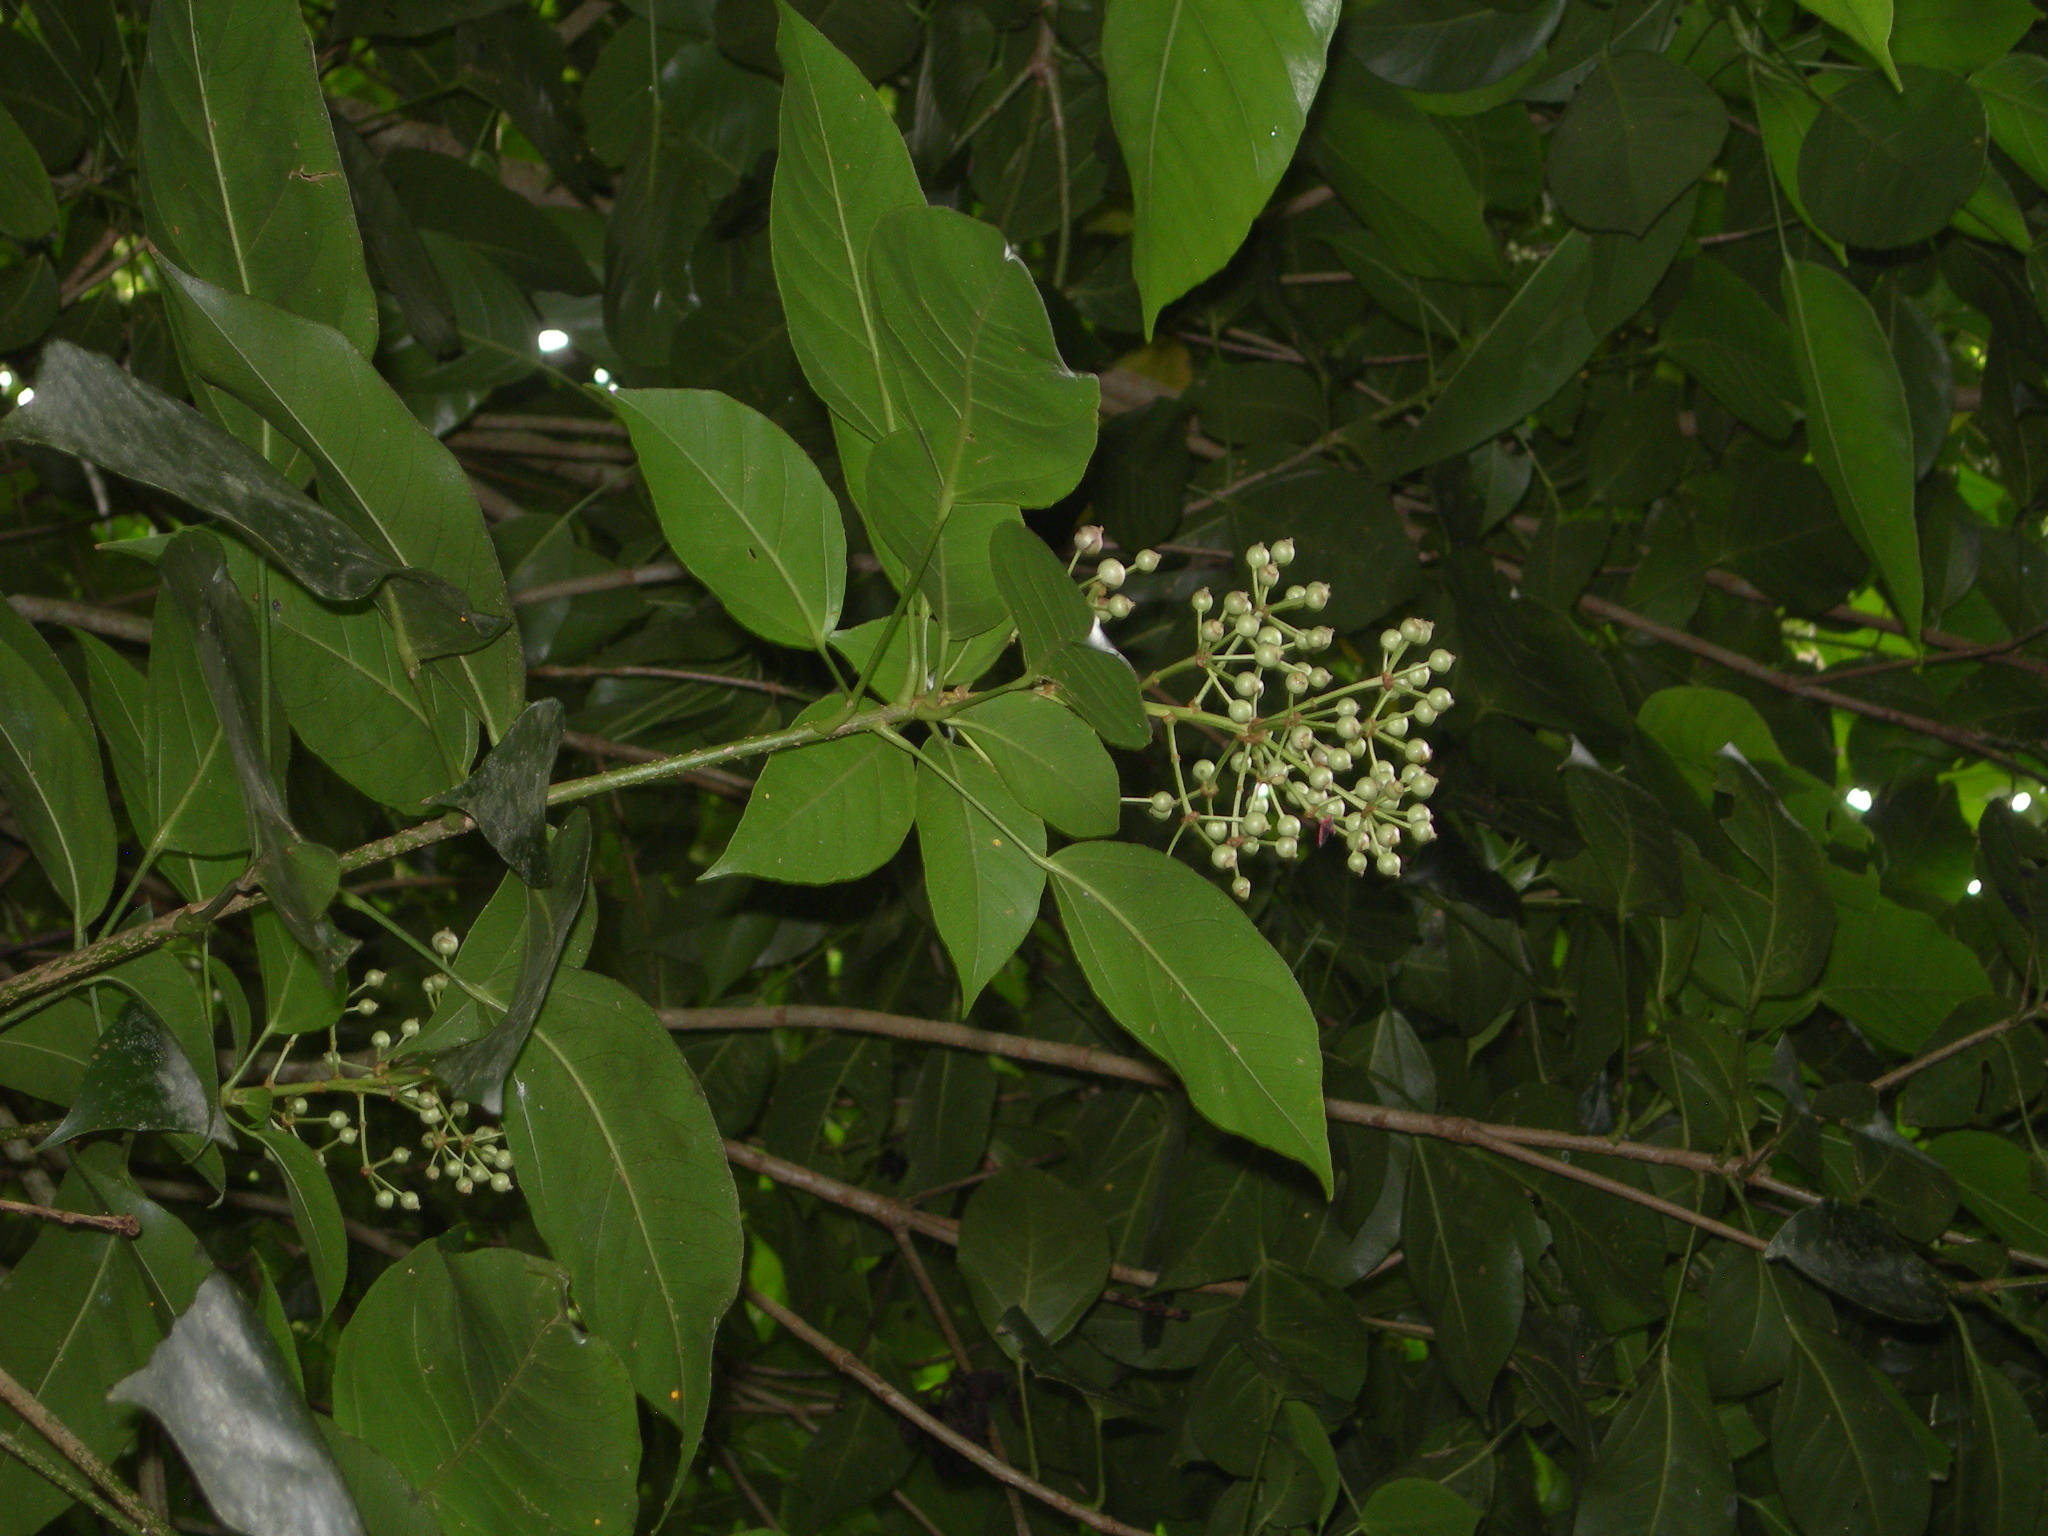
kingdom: Plantae
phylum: Tracheophyta
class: Magnoliopsida
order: Apiales
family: Araliaceae
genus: Dendropanax
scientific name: Dendropanax arboreus
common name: Potato-wood
